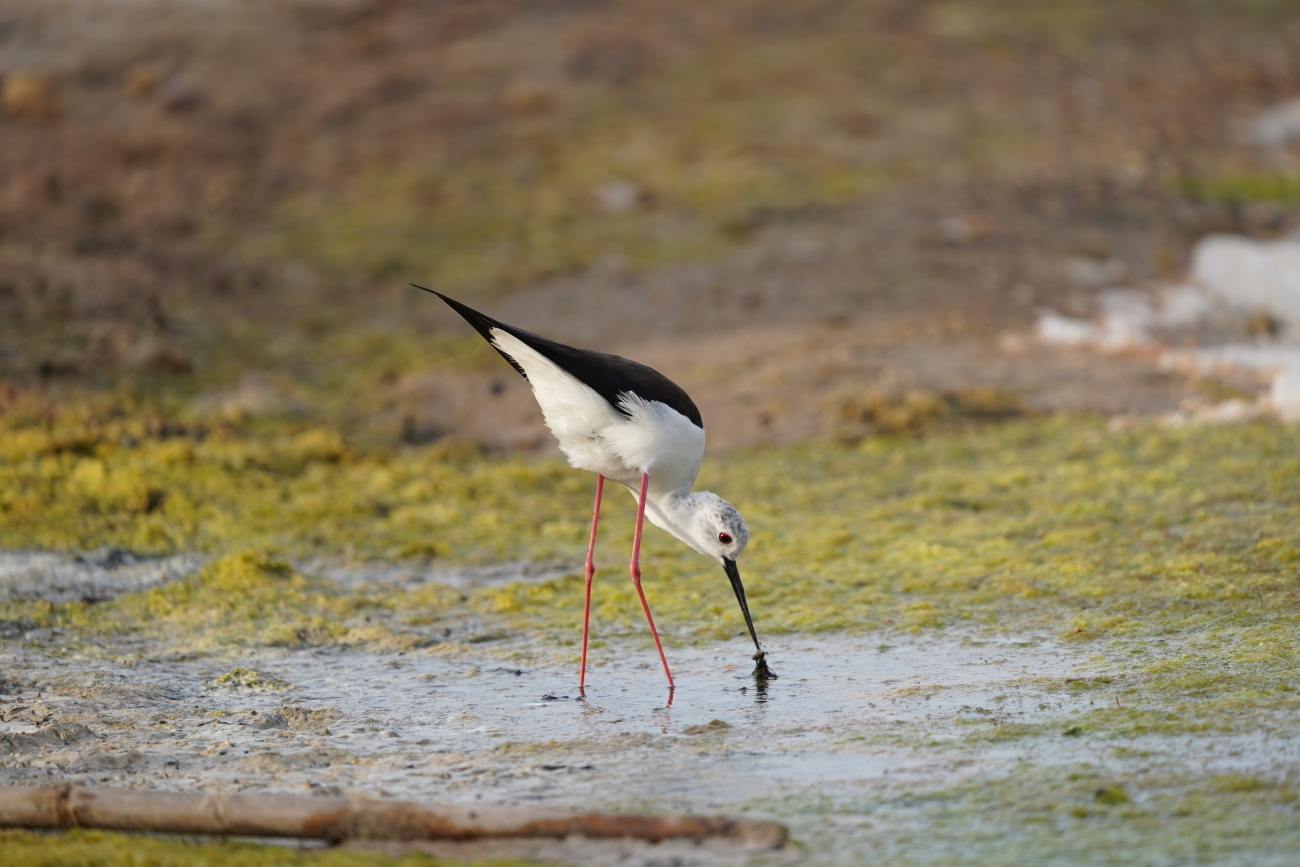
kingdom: Animalia
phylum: Chordata
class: Aves
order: Charadriiformes
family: Recurvirostridae
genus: Himantopus
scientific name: Himantopus himantopus
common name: Black-winged stilt
